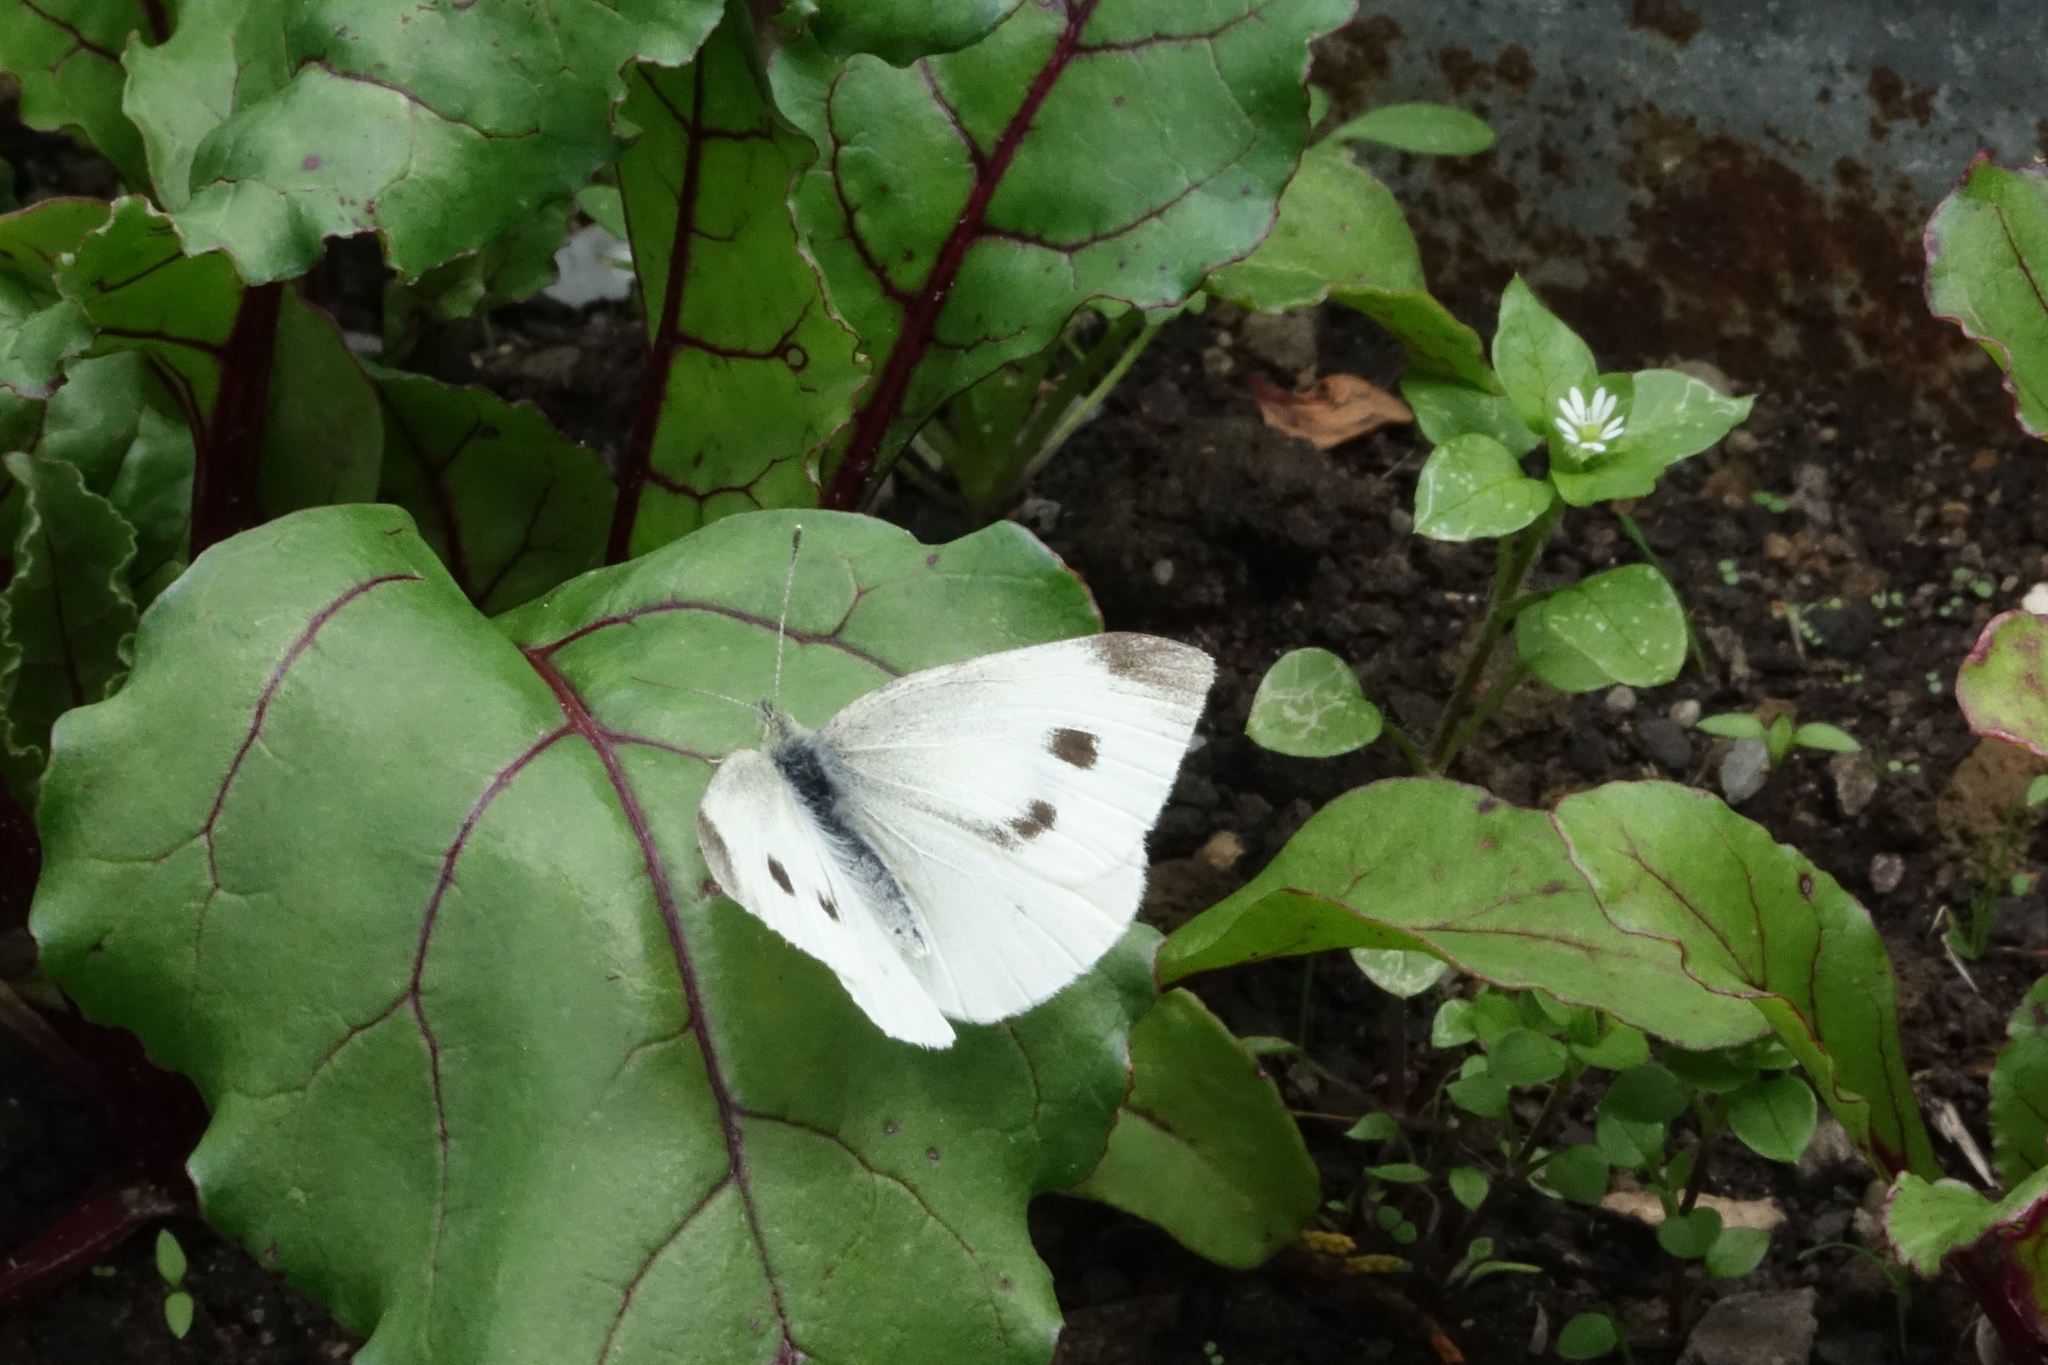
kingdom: Animalia
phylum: Arthropoda
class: Insecta
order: Lepidoptera
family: Pieridae
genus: Pieris
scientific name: Pieris rapae
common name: Small white
